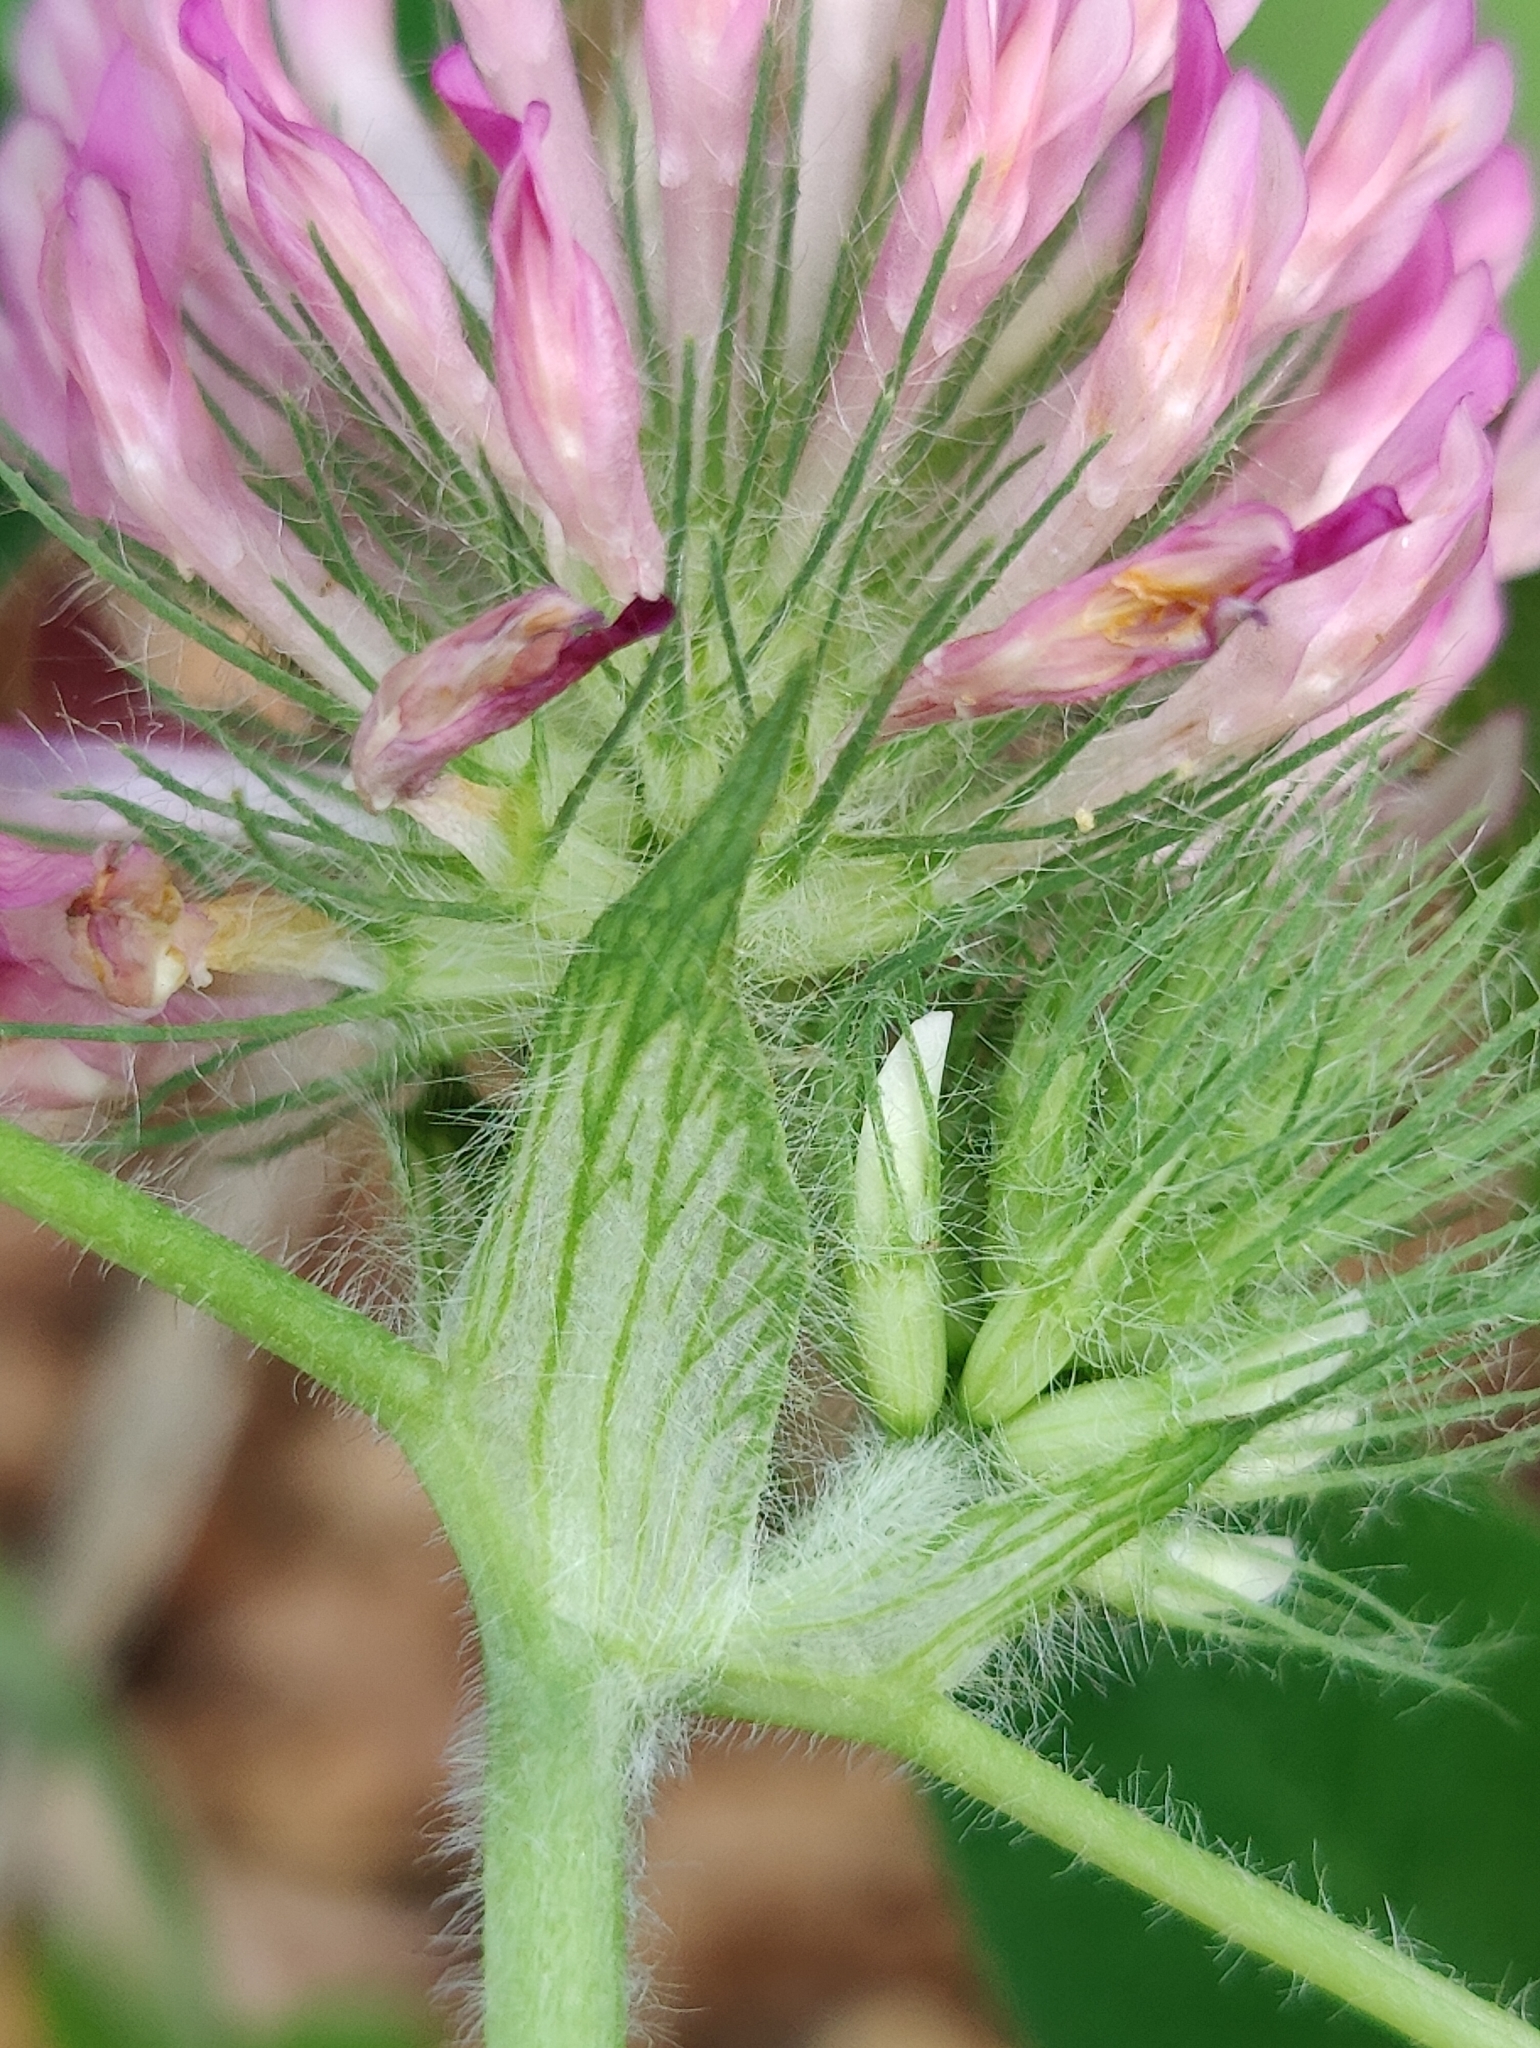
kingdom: Plantae
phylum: Tracheophyta
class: Magnoliopsida
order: Fabales
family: Fabaceae
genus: Trifolium
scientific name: Trifolium pratense
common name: Red clover
